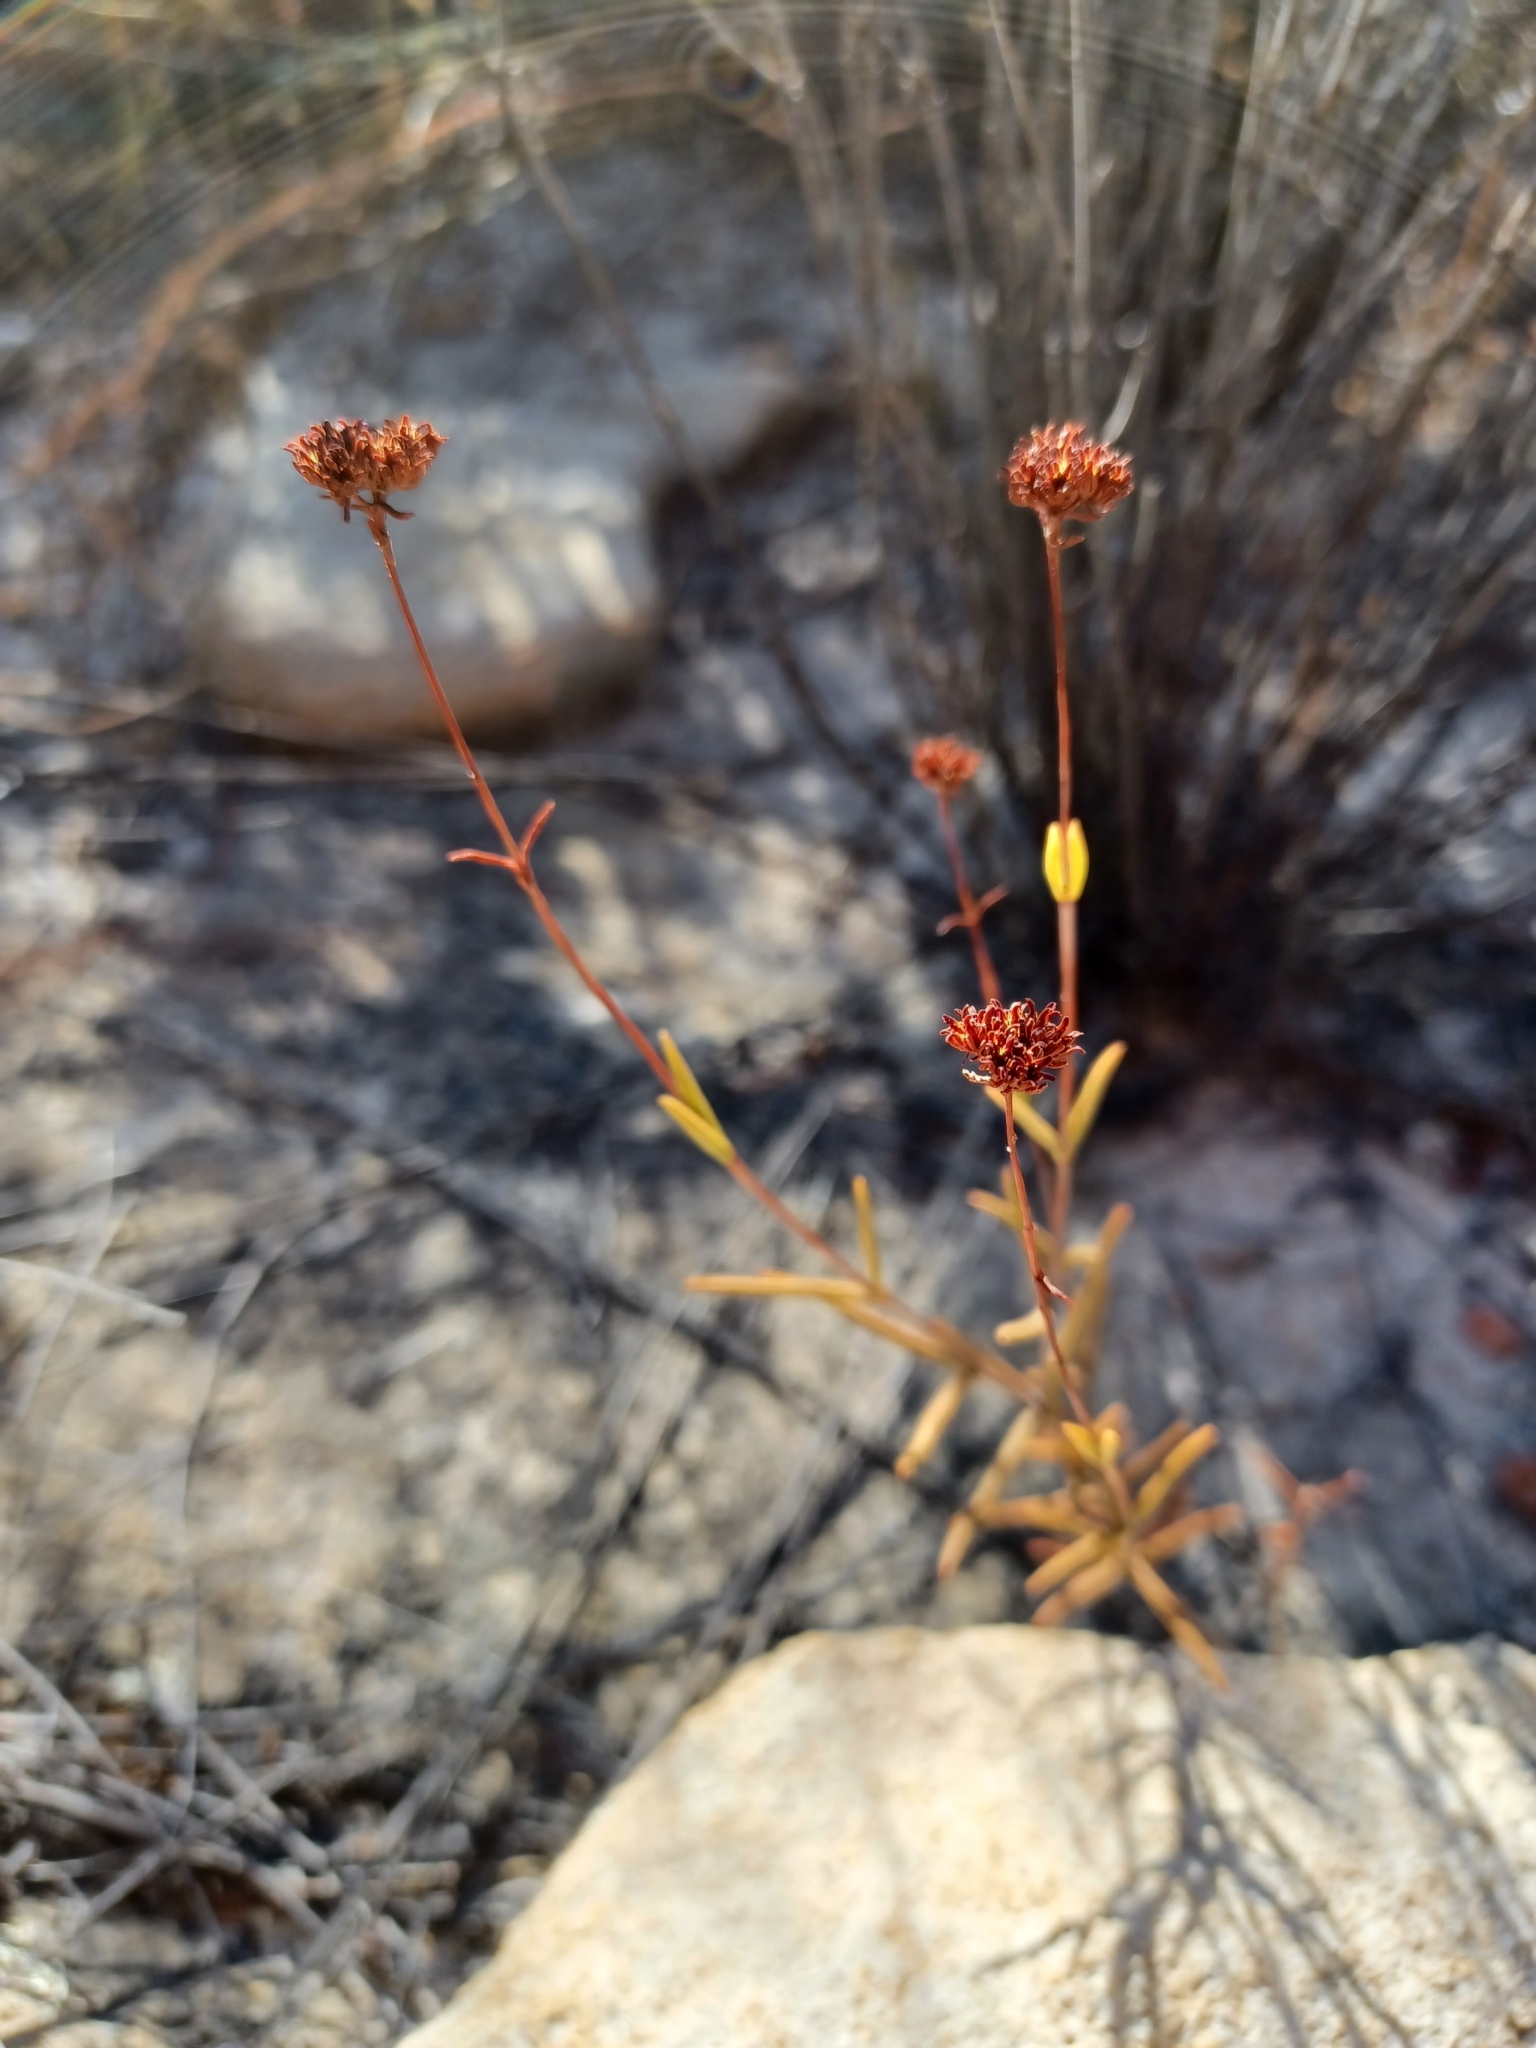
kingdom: Plantae
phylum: Tracheophyta
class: Magnoliopsida
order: Saxifragales
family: Crassulaceae
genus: Crassula
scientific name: Crassula subulata
